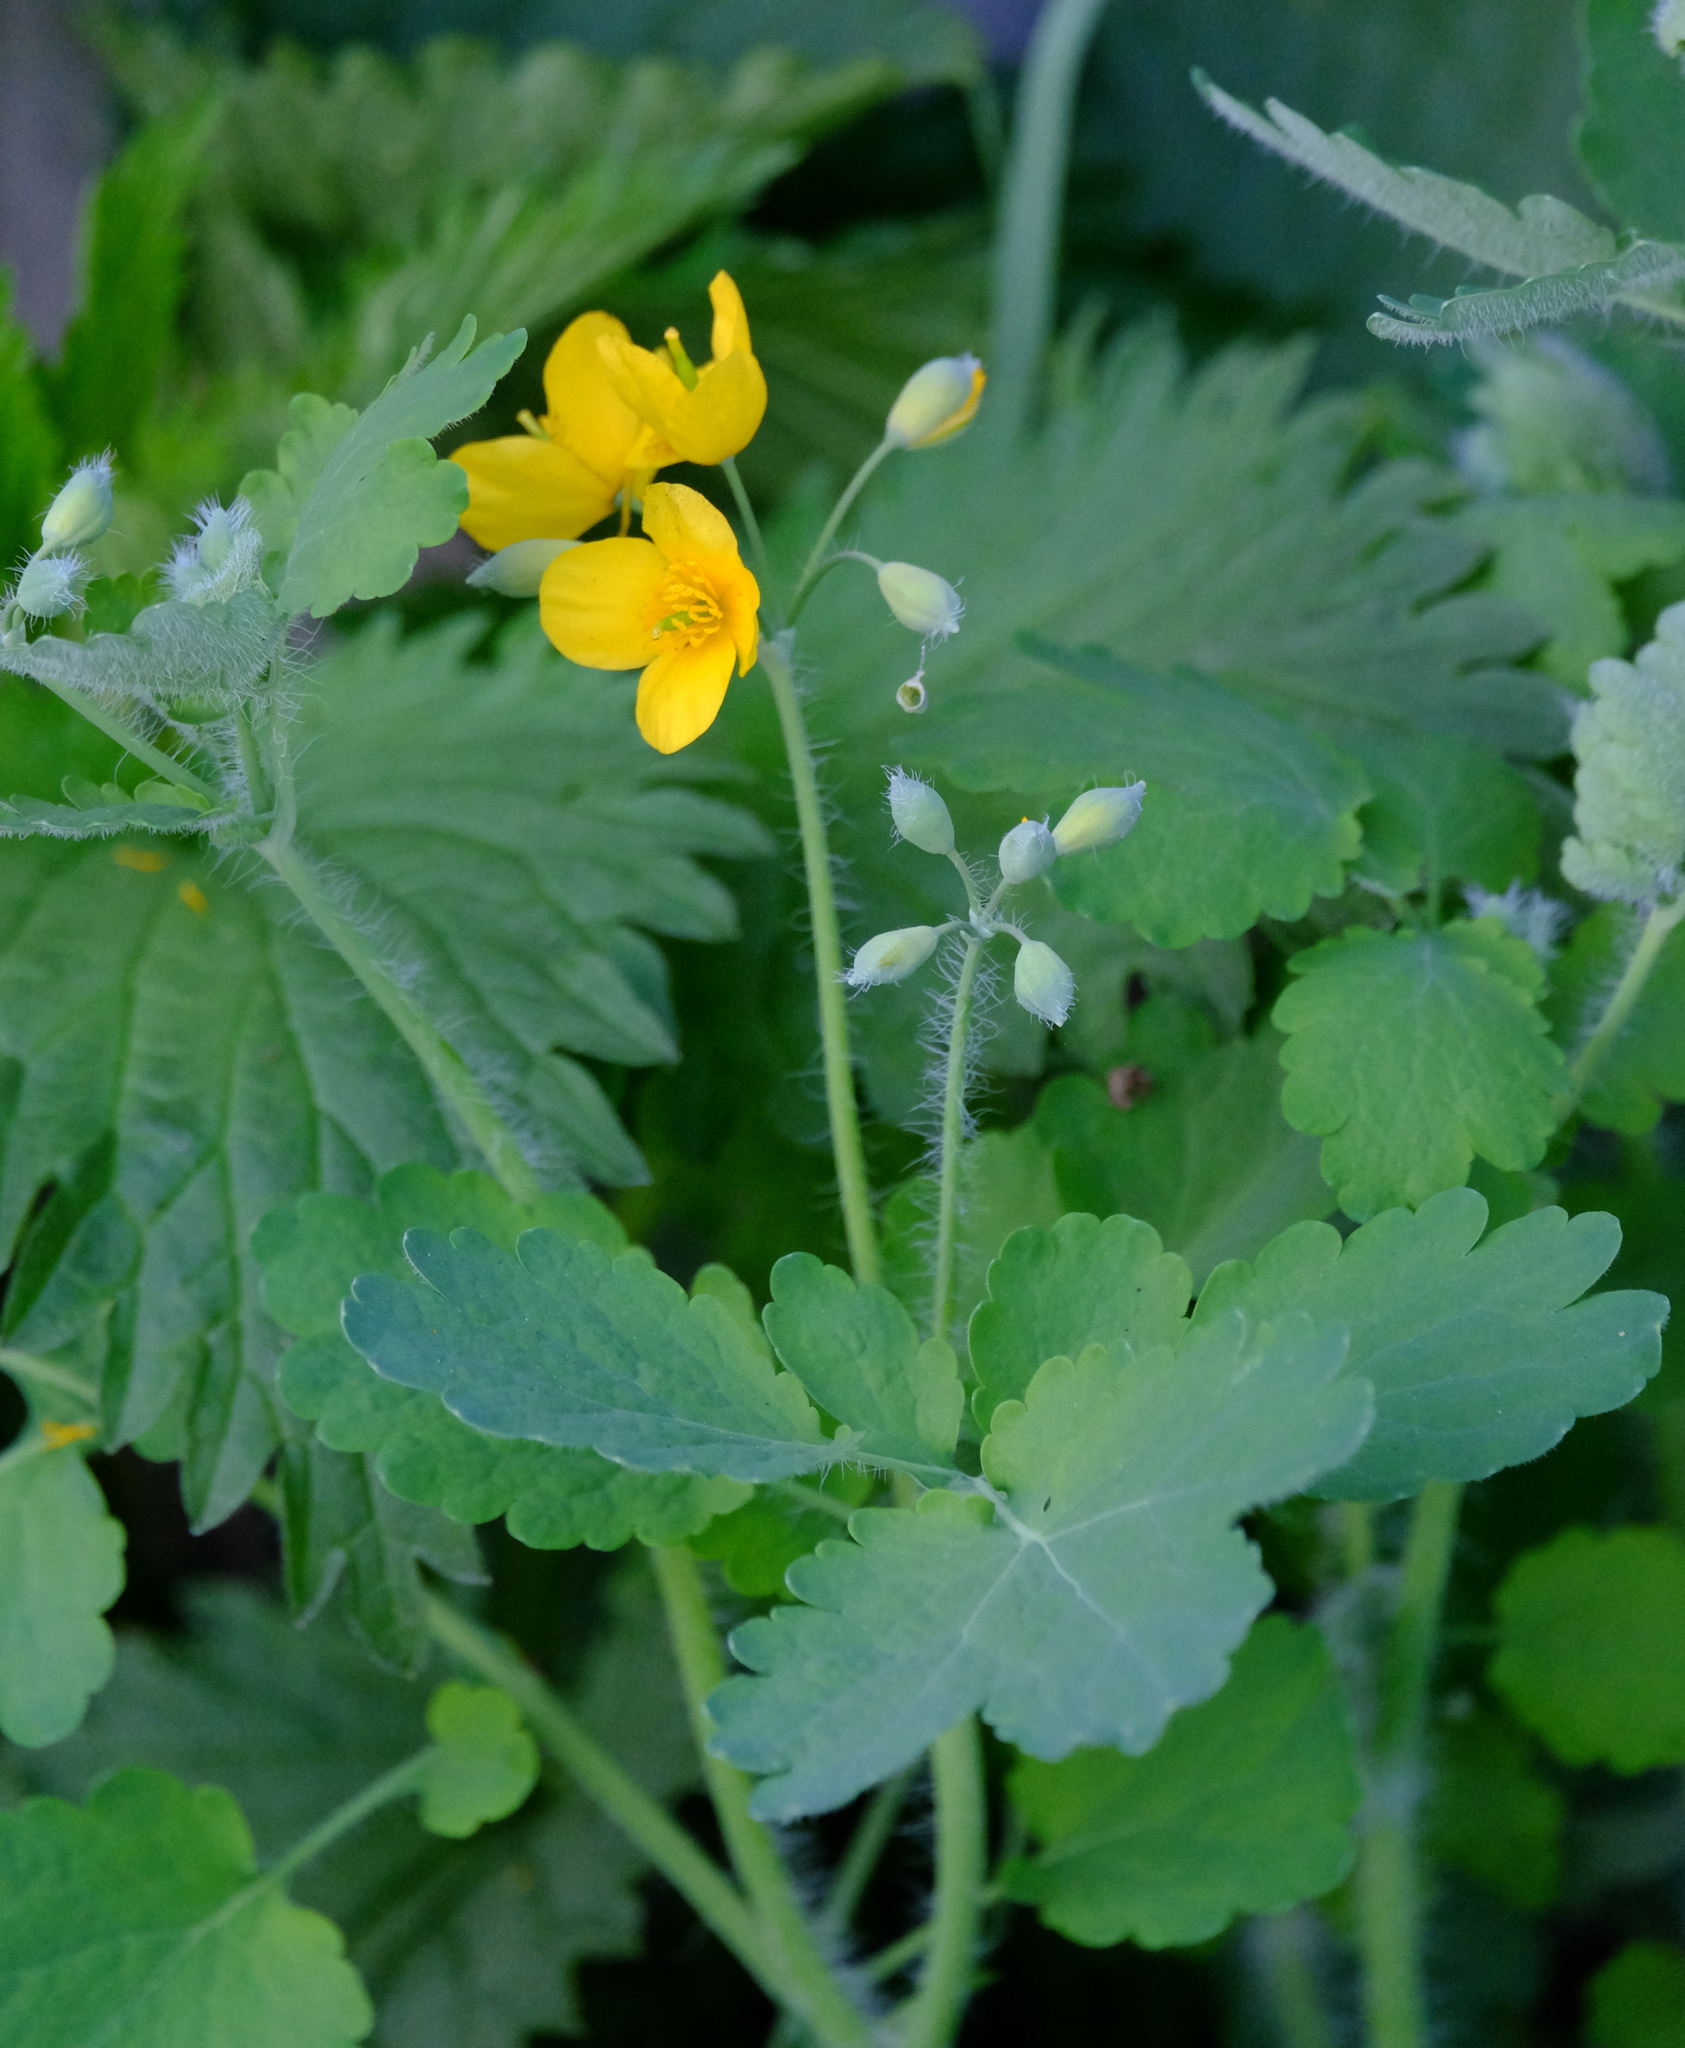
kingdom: Plantae
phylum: Tracheophyta
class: Magnoliopsida
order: Ranunculales
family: Papaveraceae
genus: Chelidonium
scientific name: Chelidonium majus
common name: Greater celandine
